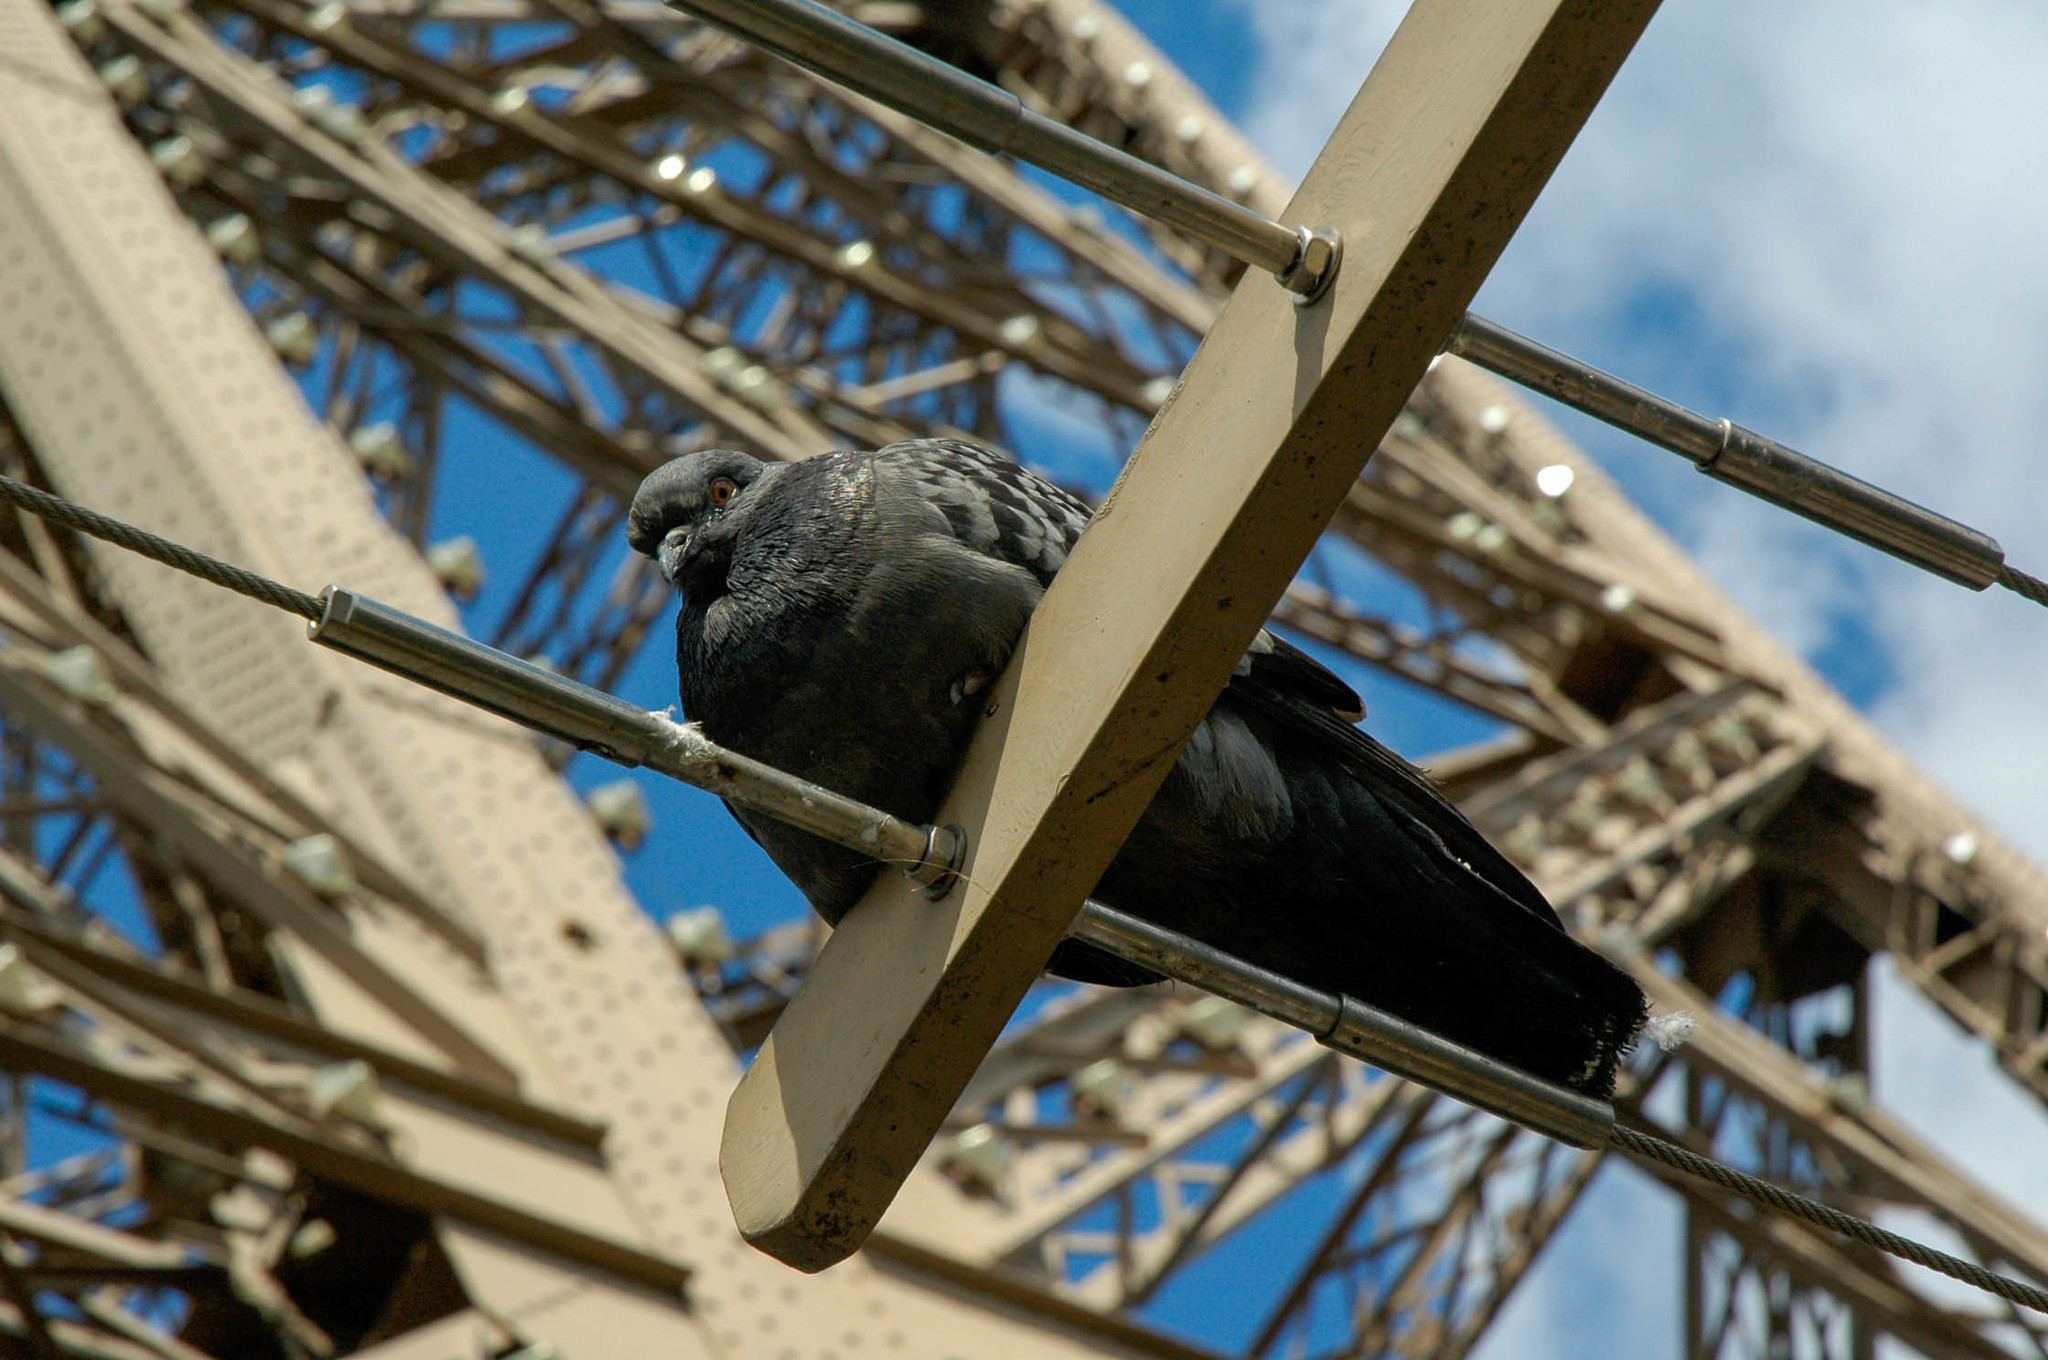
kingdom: Animalia
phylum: Chordata
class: Aves
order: Columbiformes
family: Columbidae
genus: Columba
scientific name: Columba livia
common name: Rock pigeon
